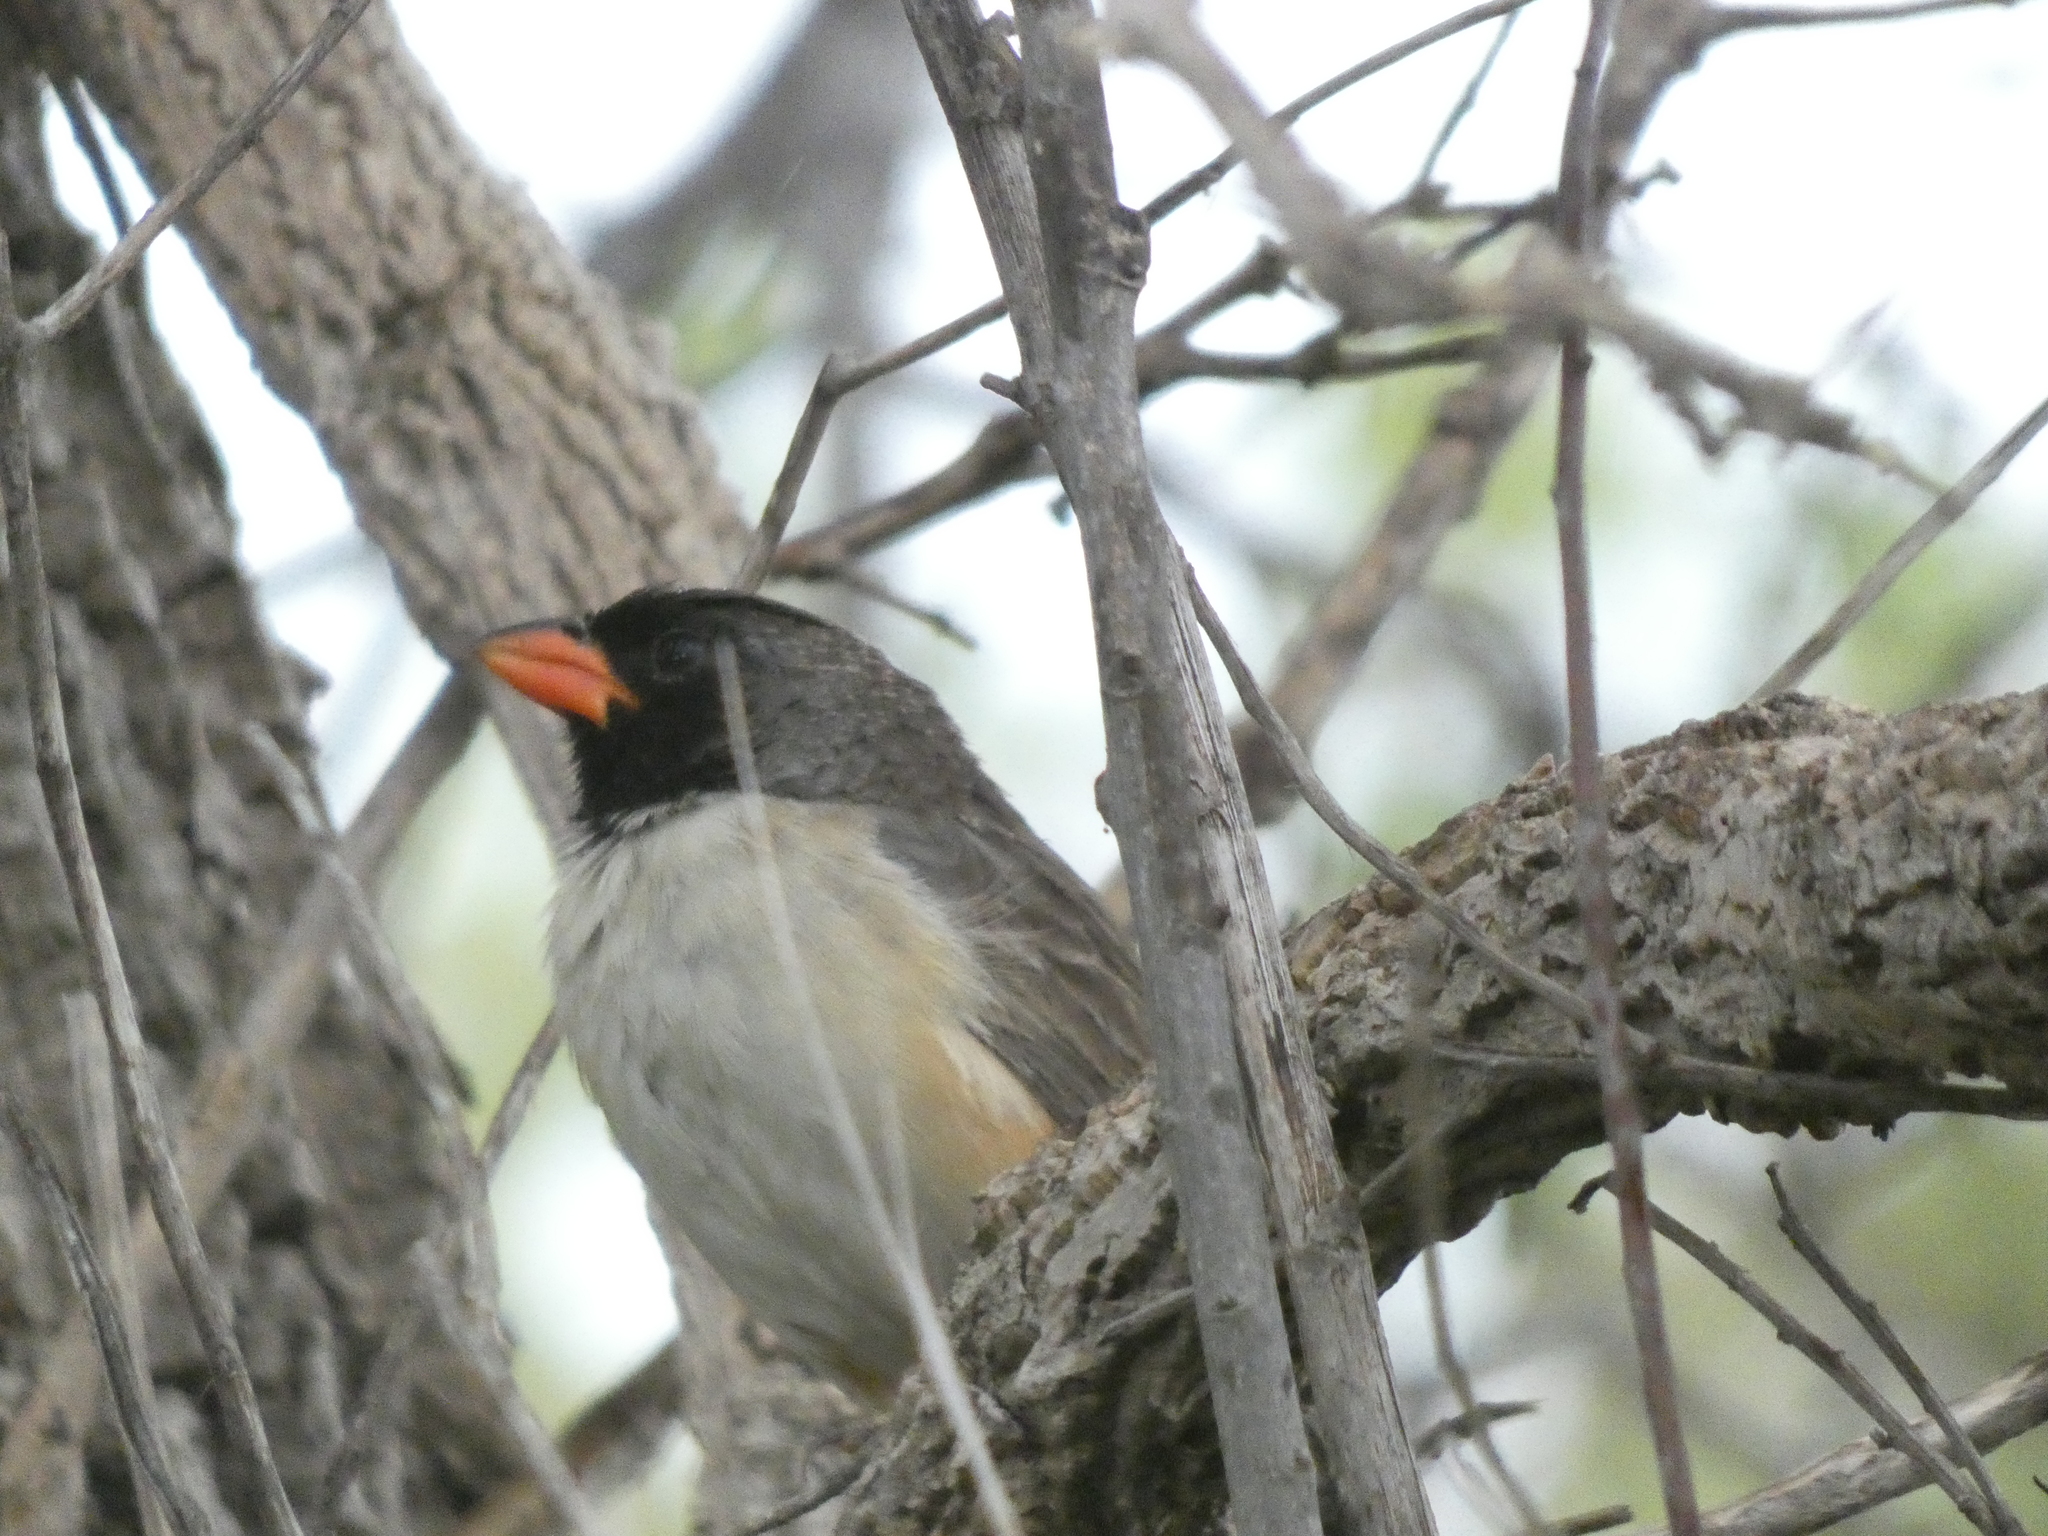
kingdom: Animalia
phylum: Chordata
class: Aves
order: Passeriformes
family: Thraupidae
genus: Saltatricula
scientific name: Saltatricula atricollis
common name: Black-throated saltator
